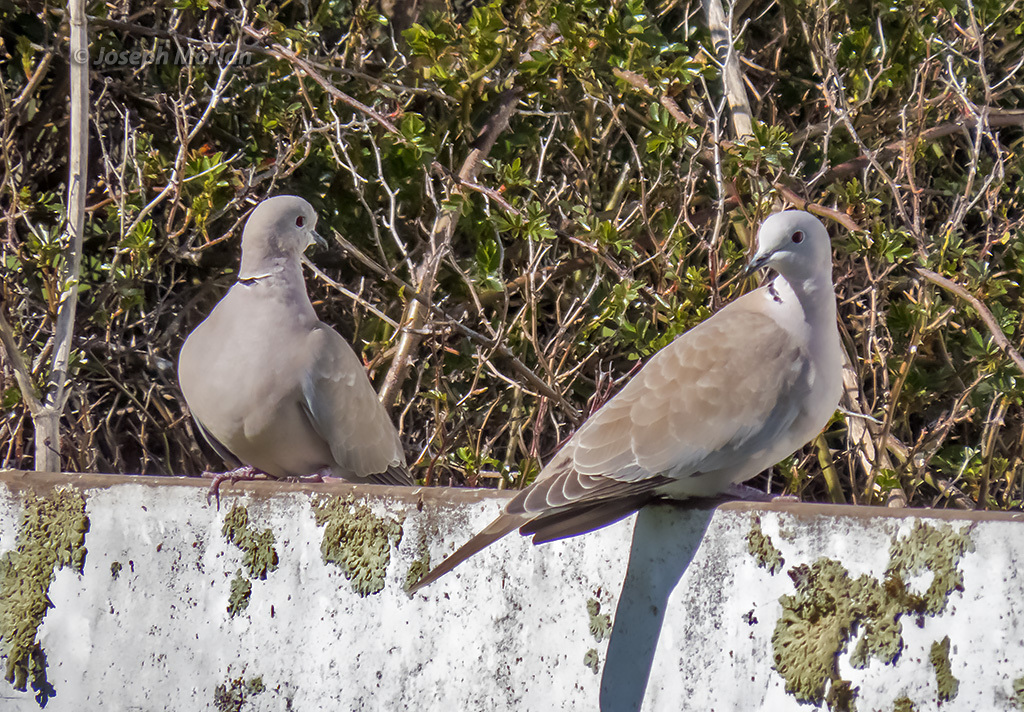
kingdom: Animalia
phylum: Chordata
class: Aves
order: Columbiformes
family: Columbidae
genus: Streptopelia
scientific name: Streptopelia decaocto
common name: Eurasian collared dove
